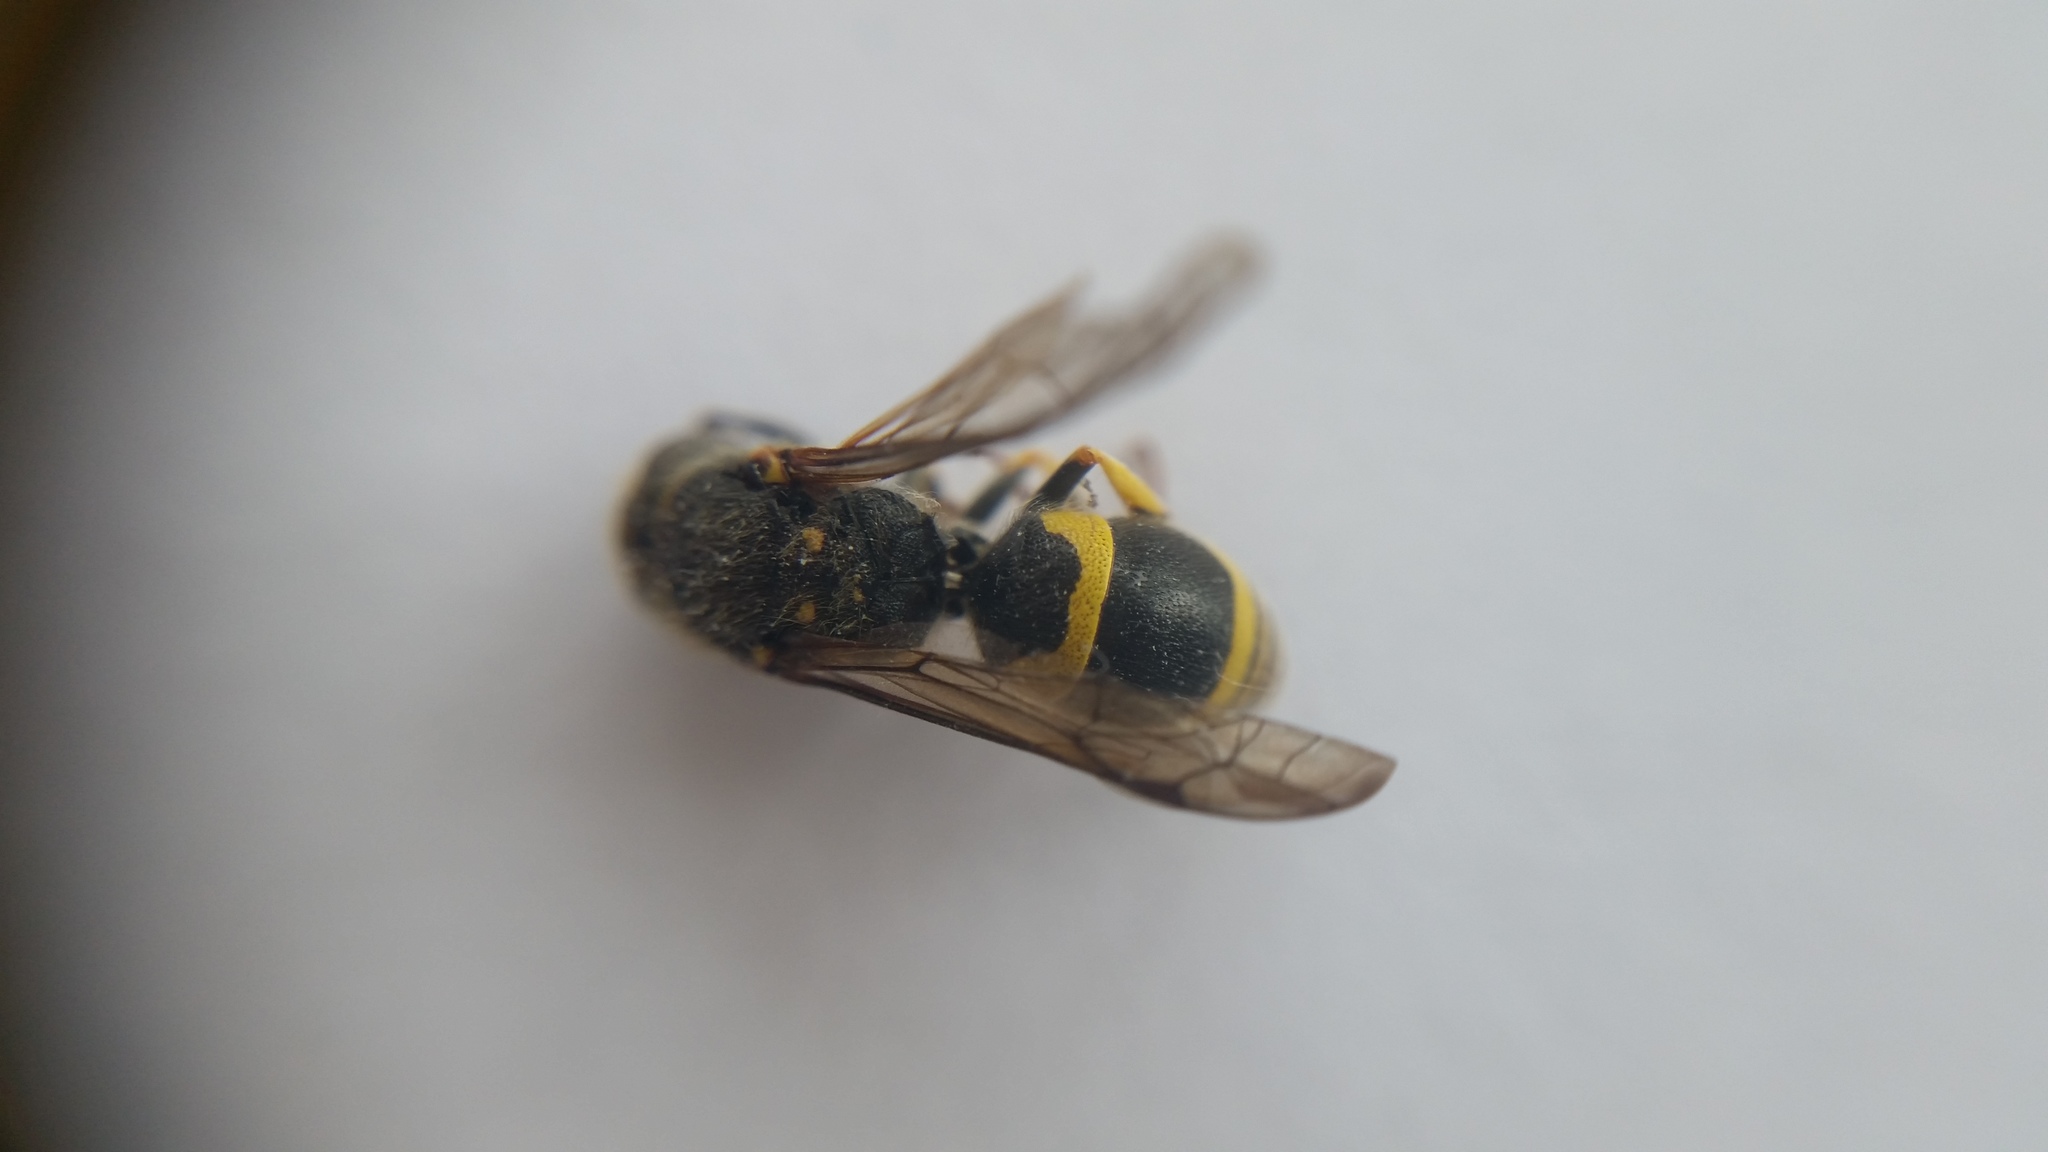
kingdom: Animalia
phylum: Arthropoda
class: Insecta
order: Hymenoptera
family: Vespidae
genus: Ancistrocerus
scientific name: Ancistrocerus gazella
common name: European tube wasp
